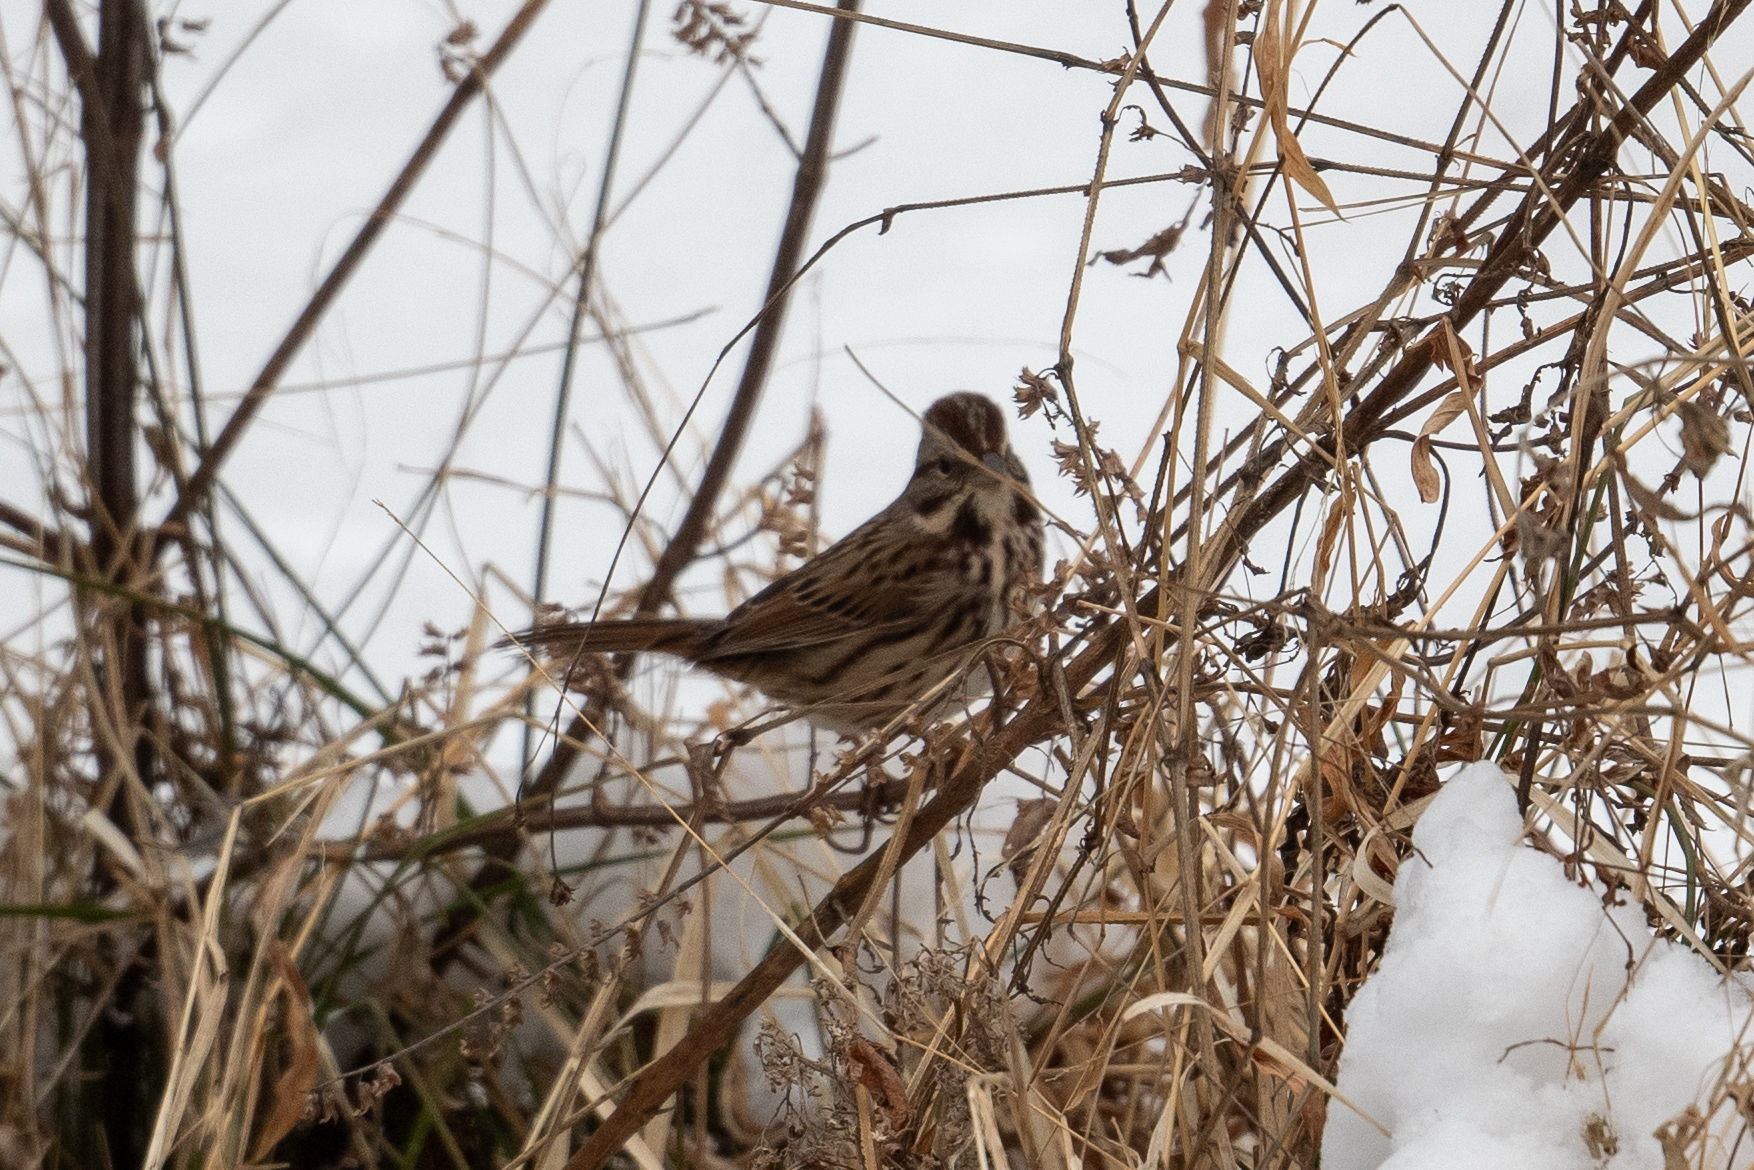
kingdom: Animalia
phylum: Chordata
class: Aves
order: Passeriformes
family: Passerellidae
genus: Melospiza
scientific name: Melospiza melodia
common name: Song sparrow
